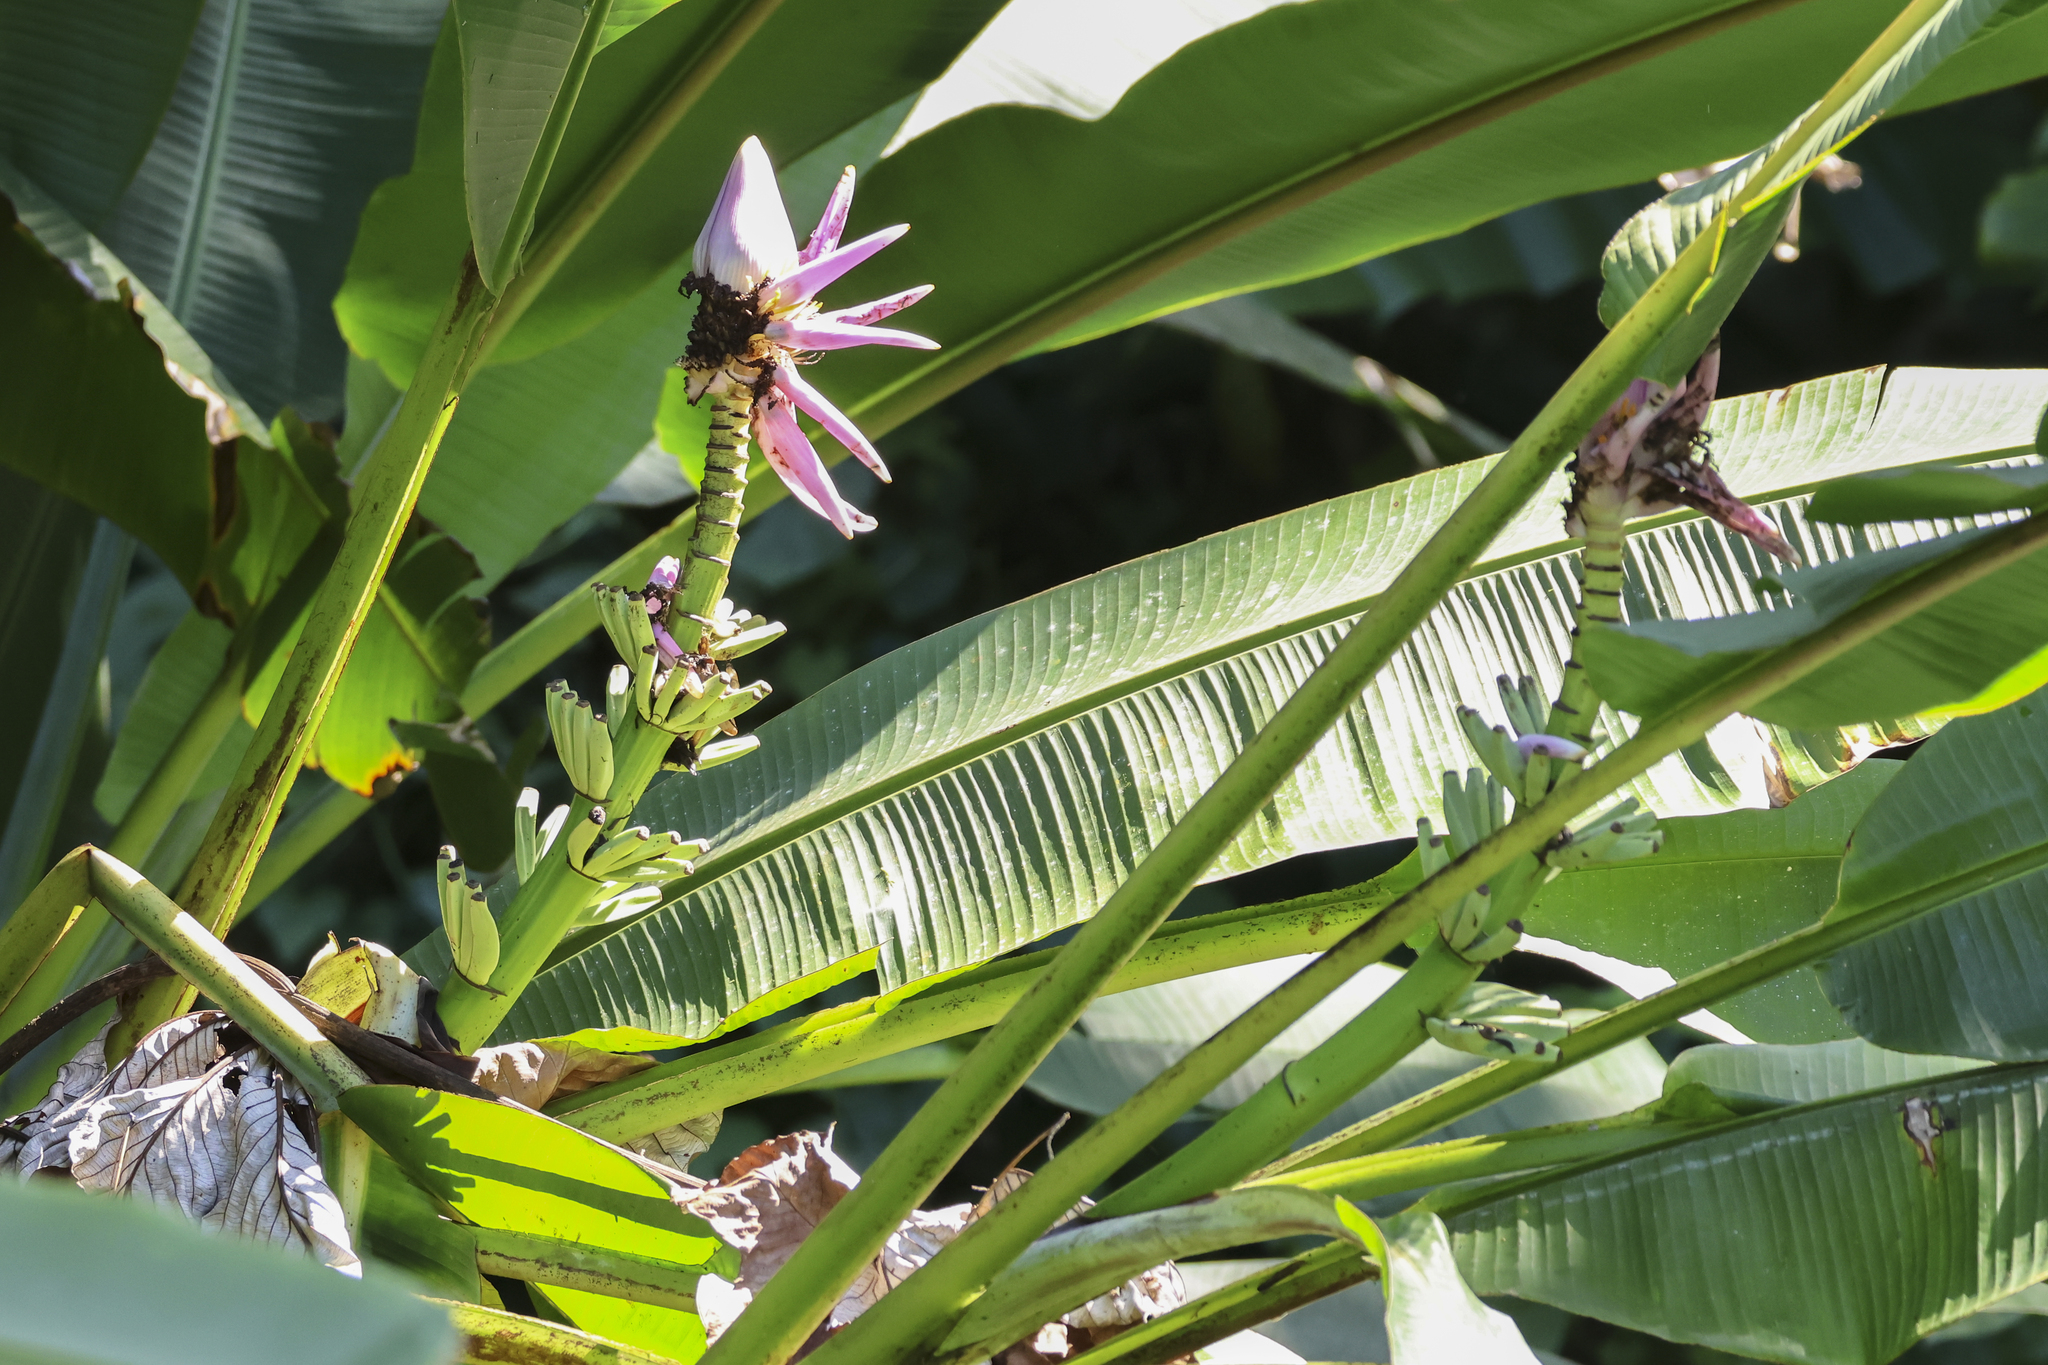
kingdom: Plantae
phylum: Tracheophyta
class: Liliopsida
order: Zingiberales
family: Musaceae
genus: Musa
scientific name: Musa ornata
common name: Flowering banana
